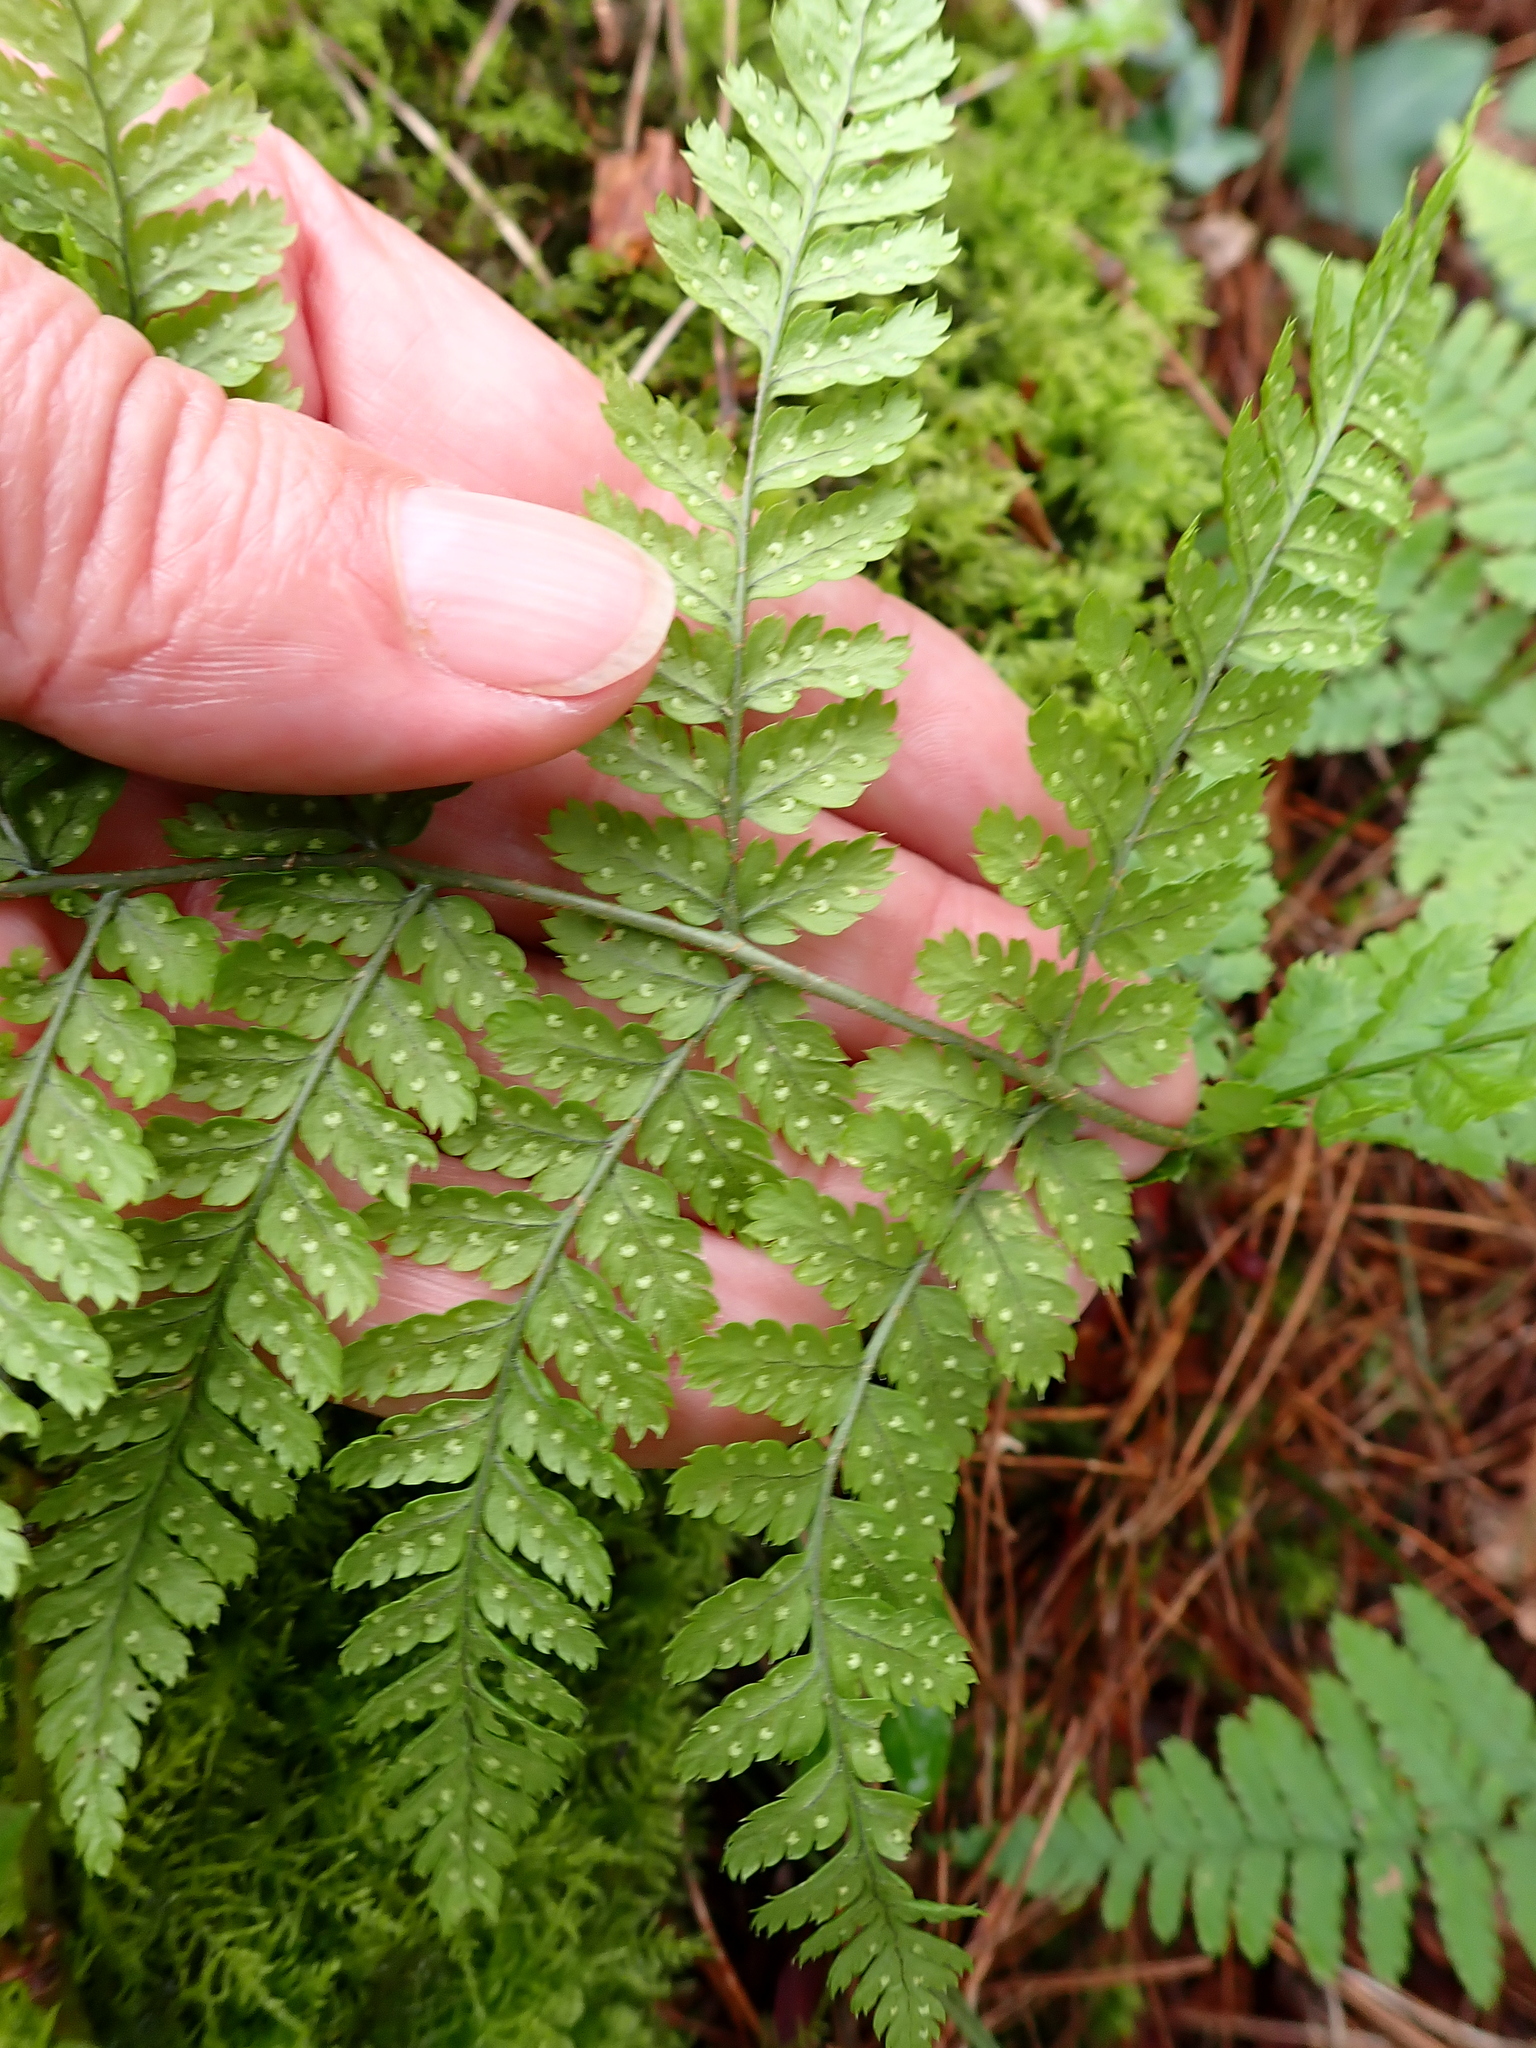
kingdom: Plantae
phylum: Tracheophyta
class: Polypodiopsida
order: Polypodiales
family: Dryopteridaceae
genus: Dryopteris
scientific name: Dryopteris dilatata
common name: Broad buckler-fern
